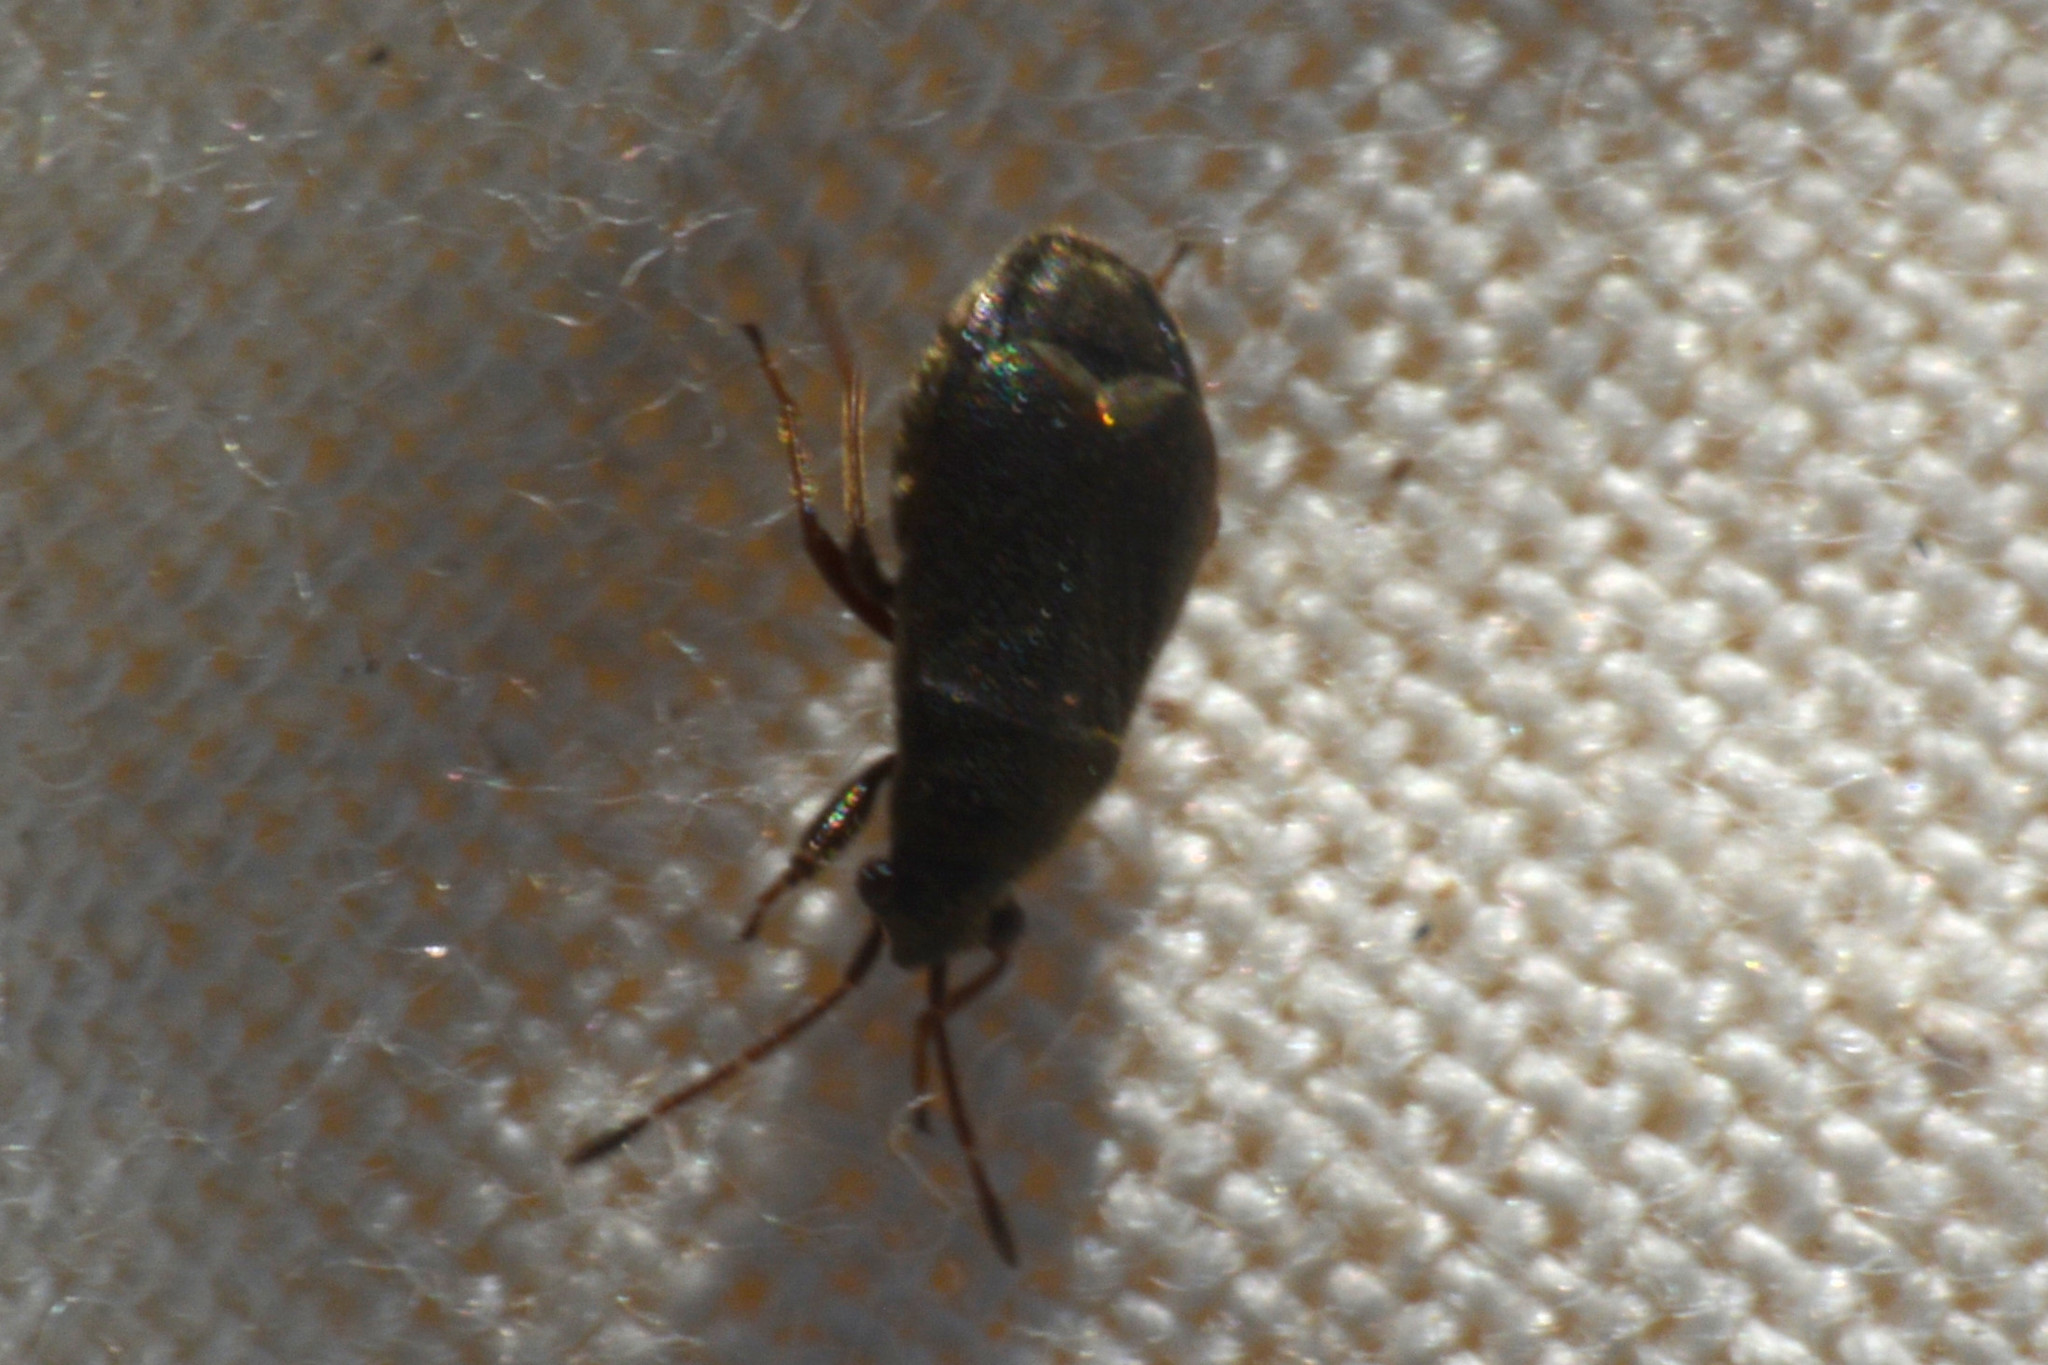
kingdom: Animalia
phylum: Arthropoda
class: Insecta
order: Hemiptera
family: Rhyparochromidae
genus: Stygnocoris
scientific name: Stygnocoris rusticus
